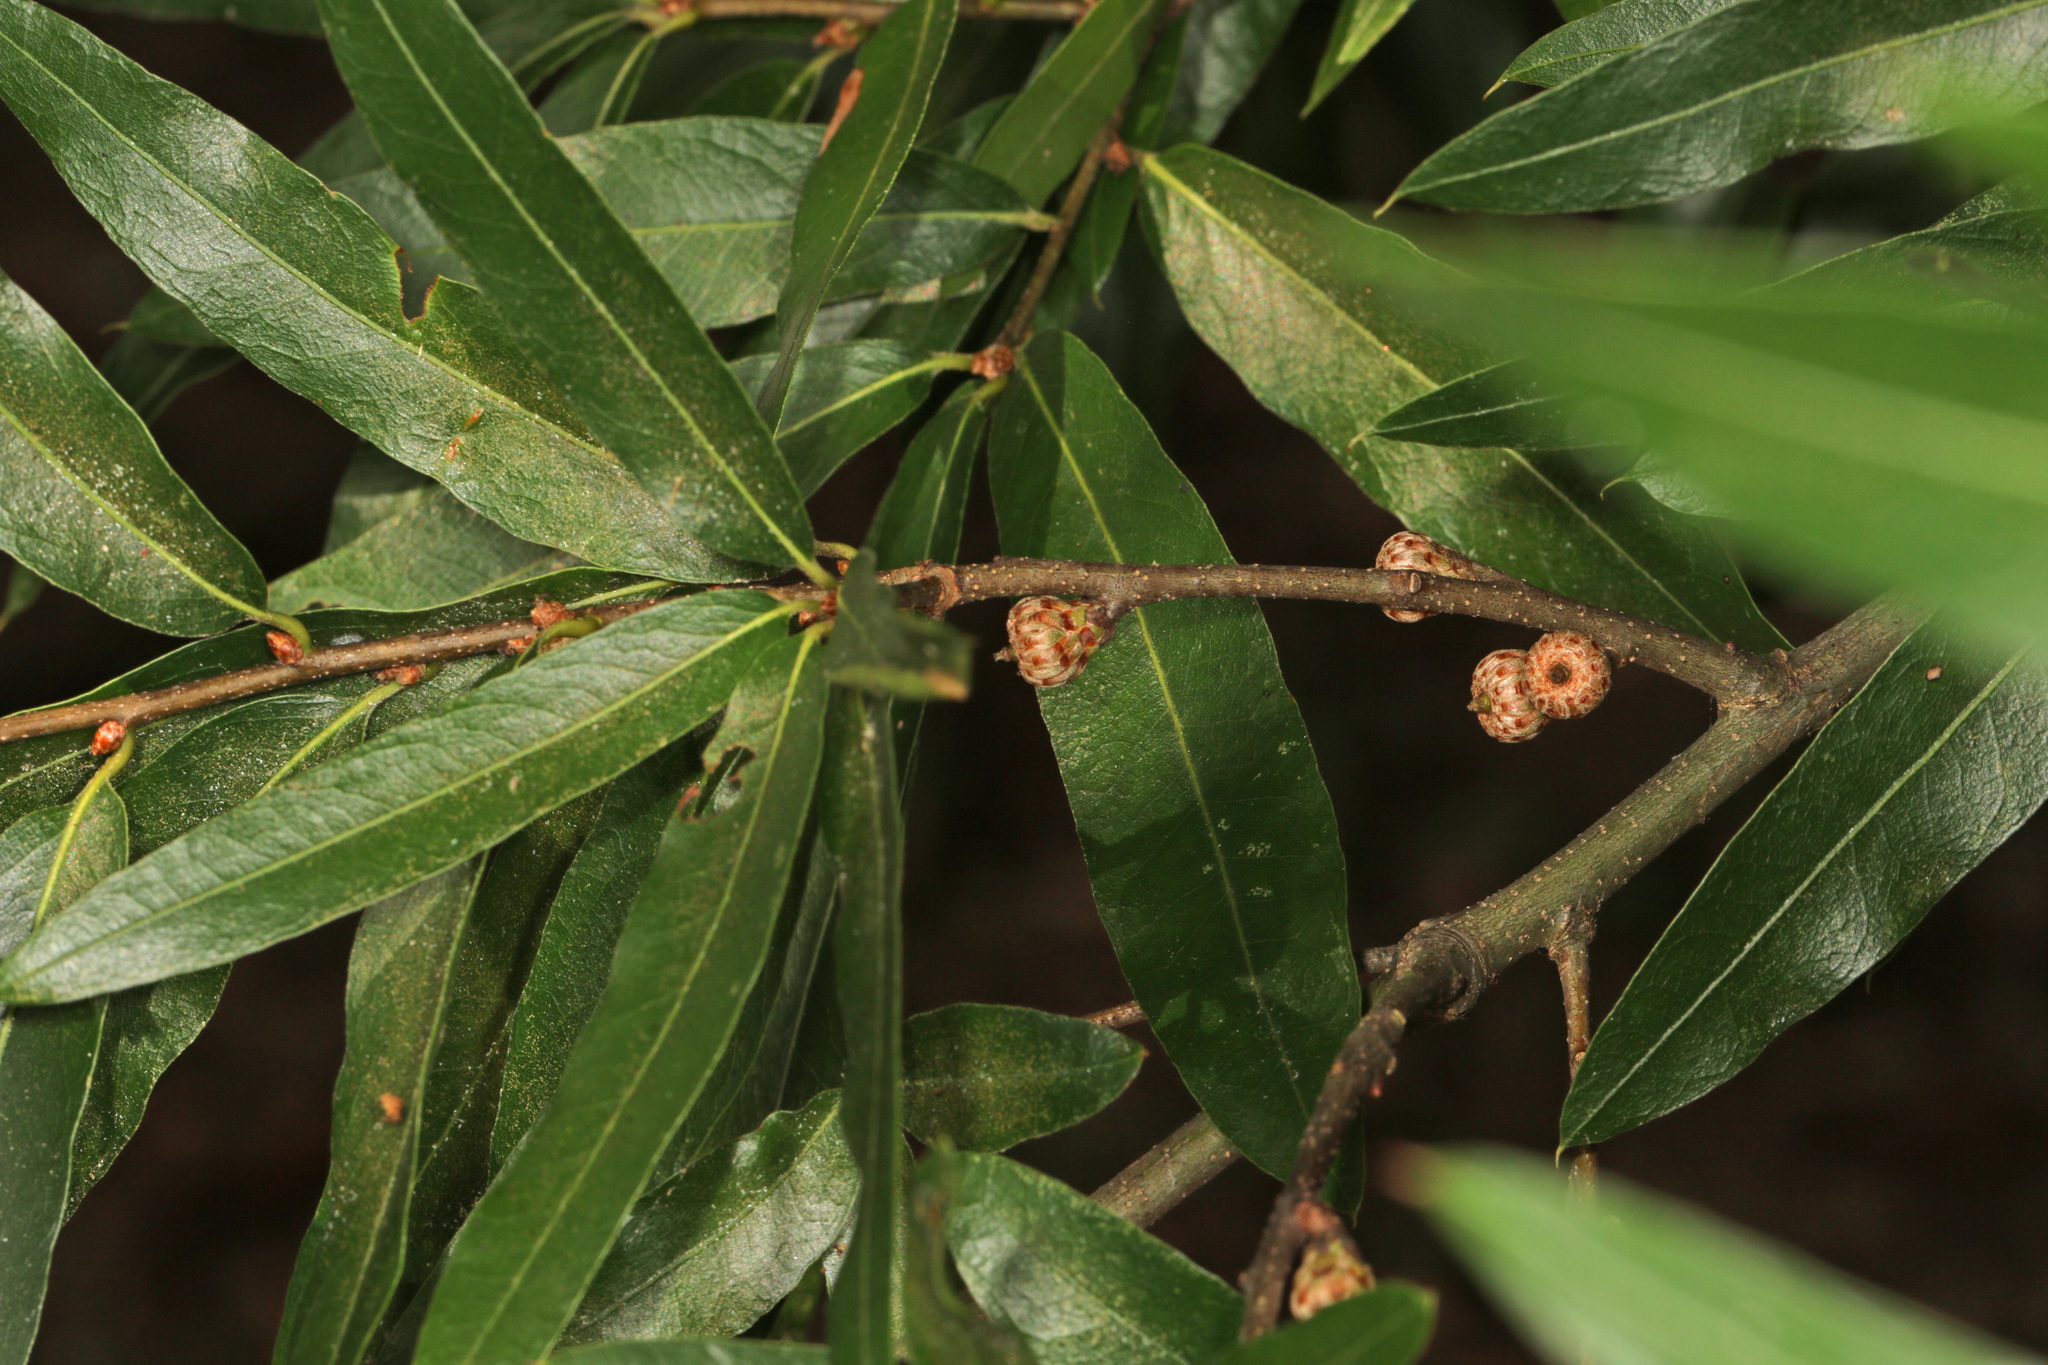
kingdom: Plantae
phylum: Tracheophyta
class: Magnoliopsida
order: Fagales
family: Fagaceae
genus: Quercus
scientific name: Quercus phellos
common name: Willow oak
